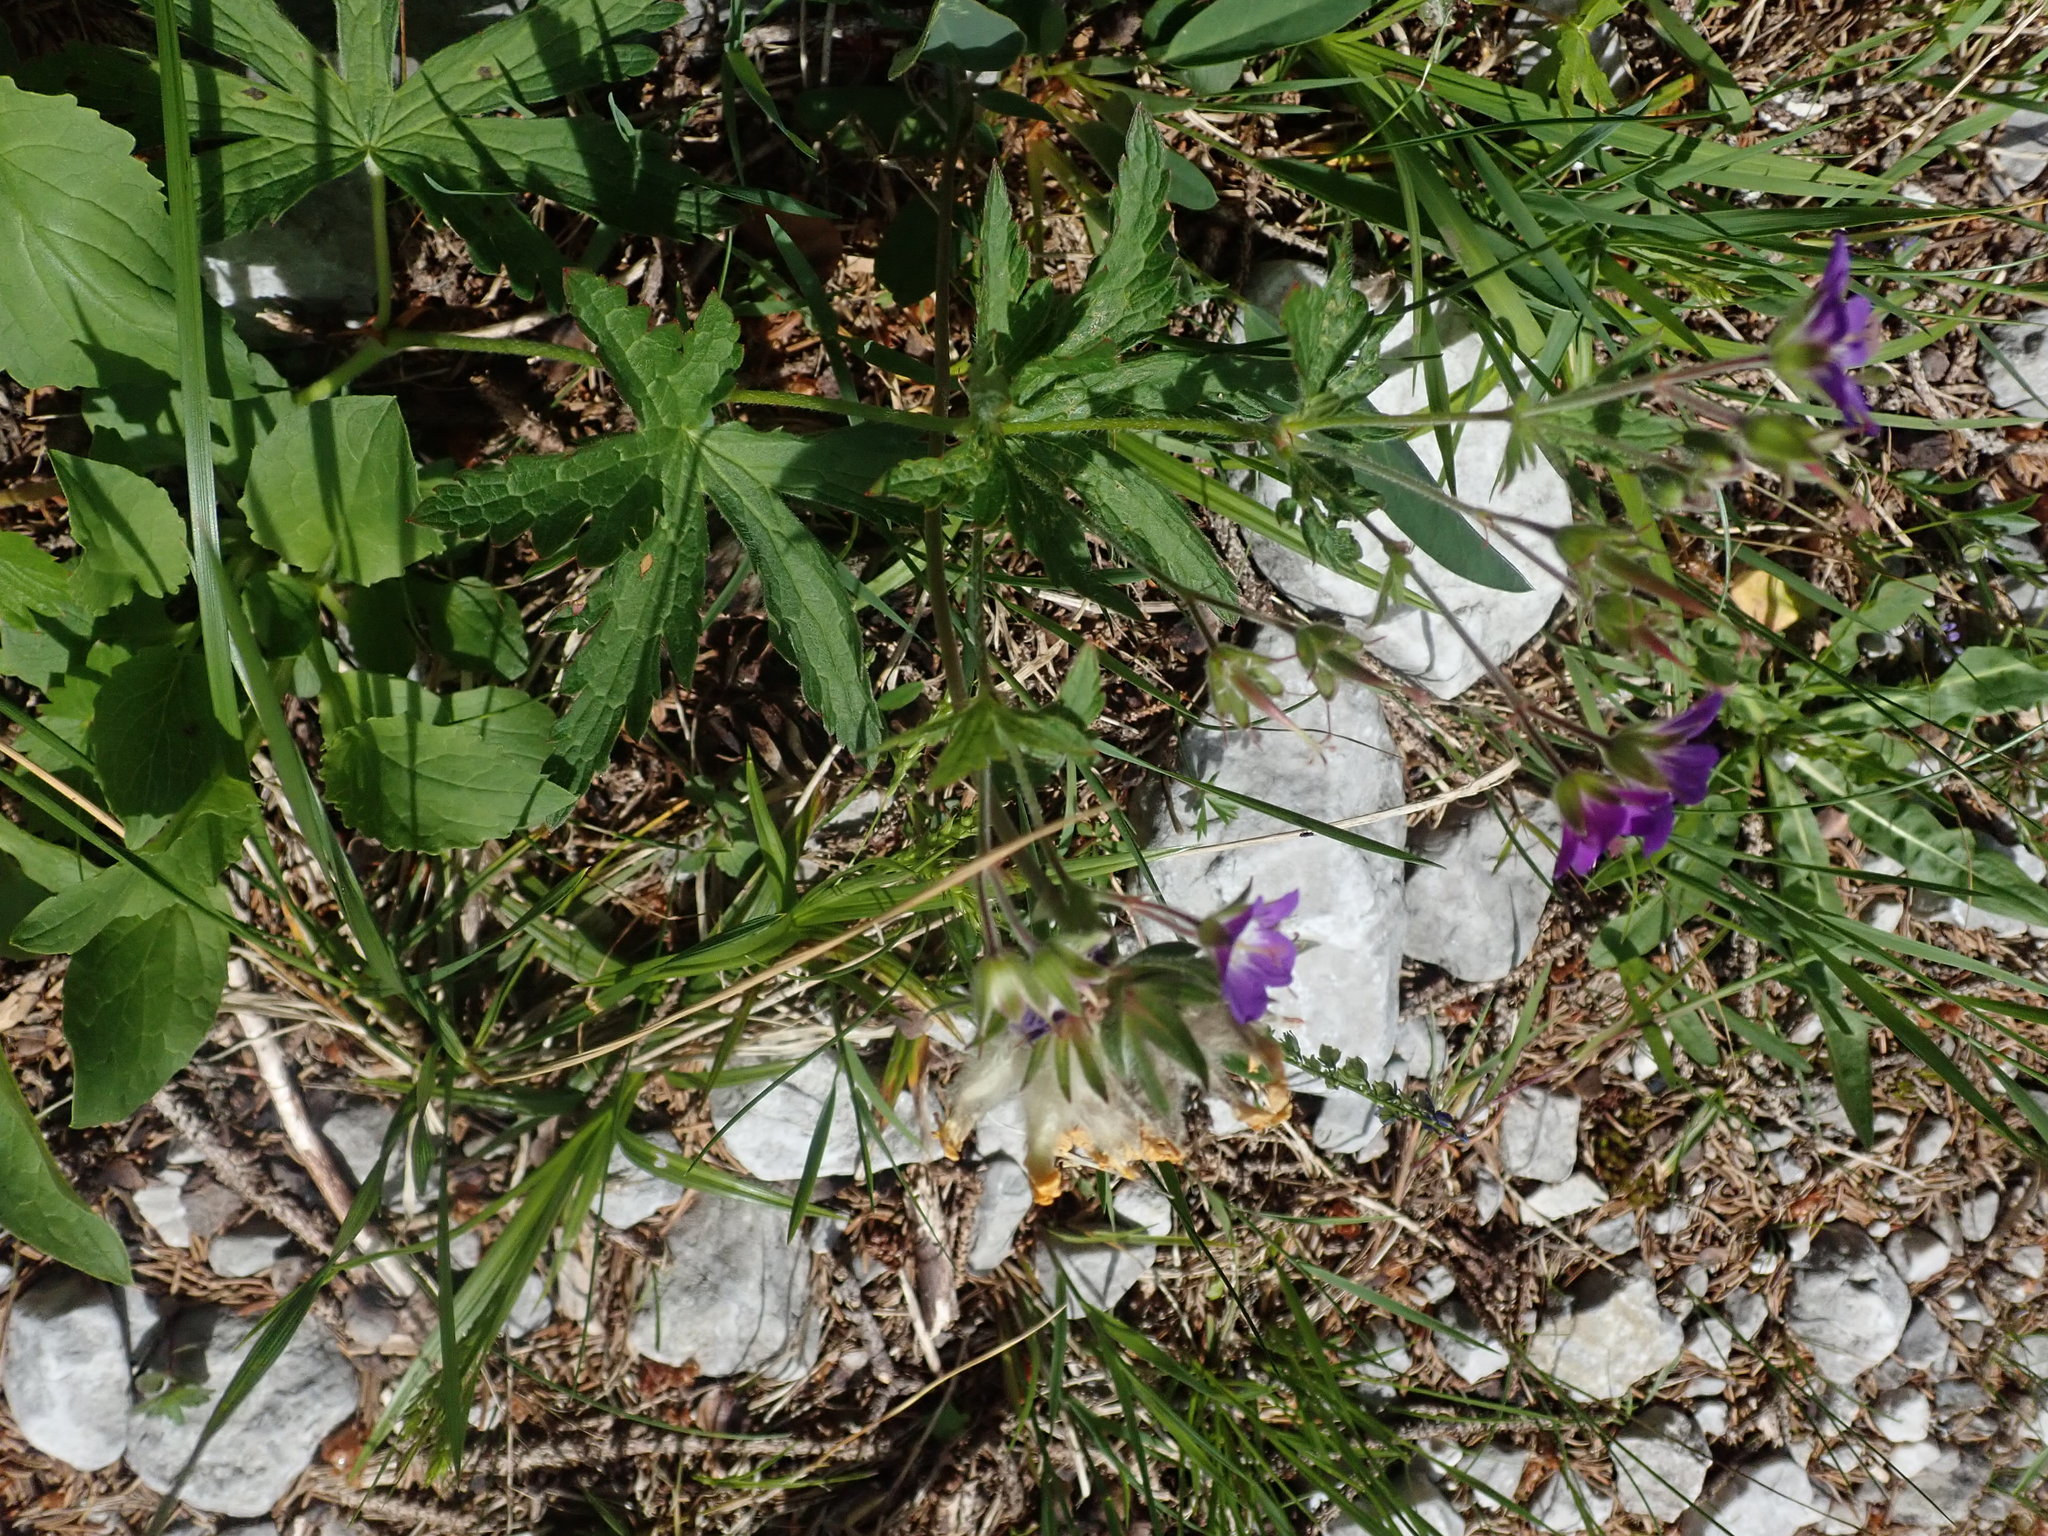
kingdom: Plantae
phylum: Tracheophyta
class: Magnoliopsida
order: Geraniales
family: Geraniaceae
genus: Geranium
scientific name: Geranium sylvaticum
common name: Wood crane's-bill
